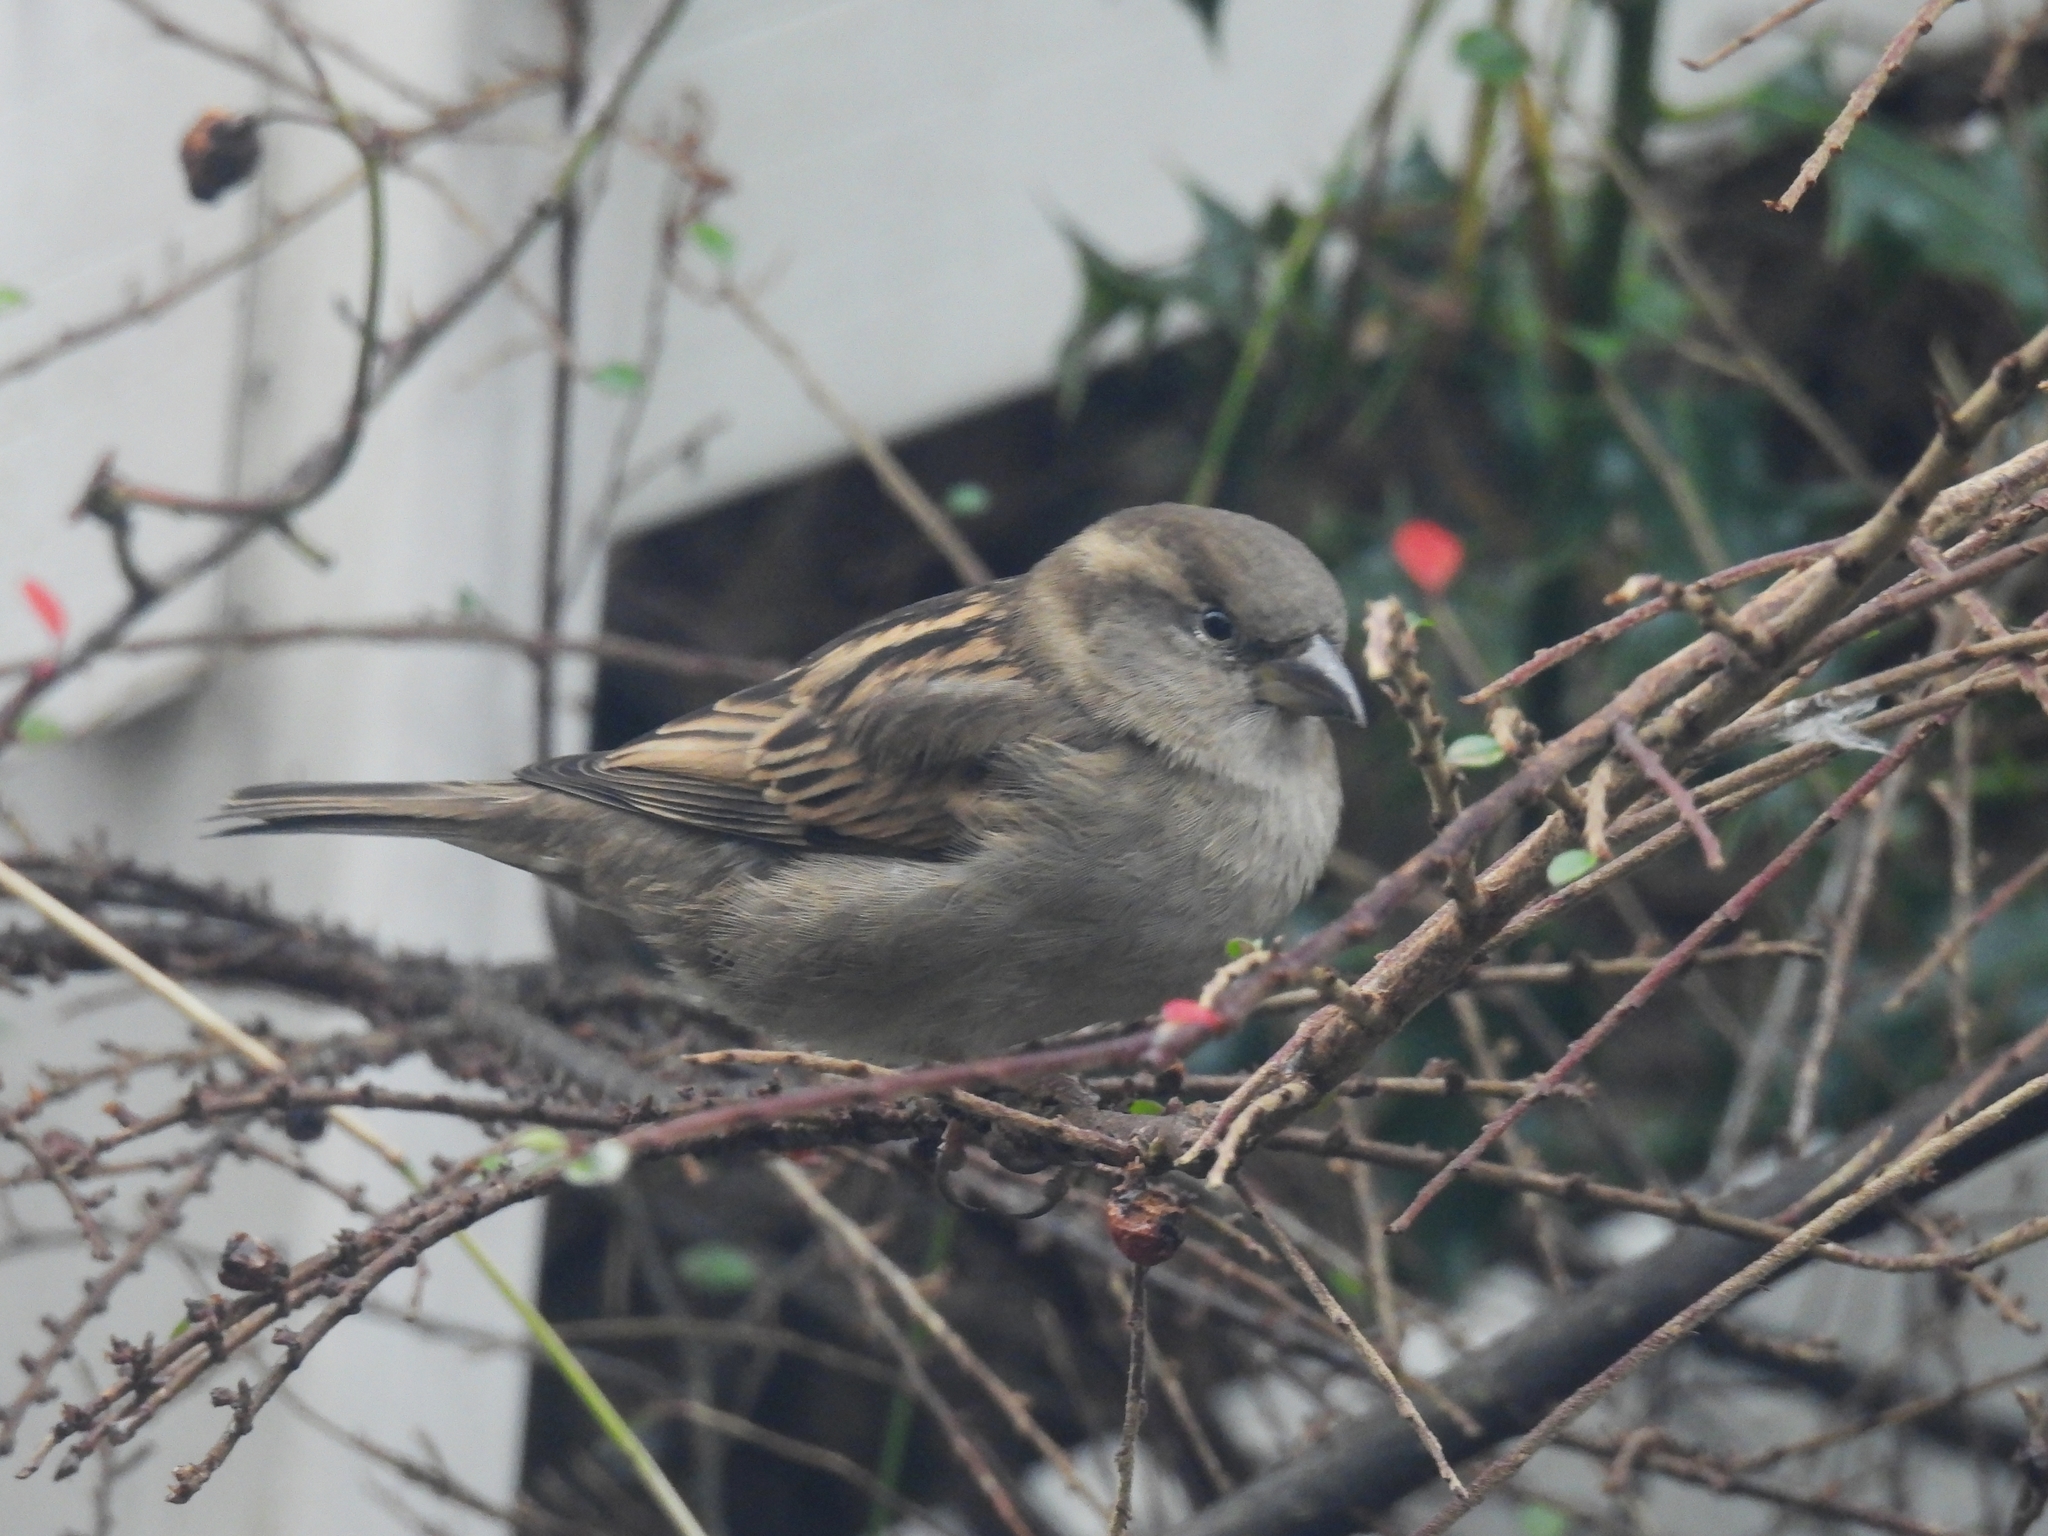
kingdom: Animalia
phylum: Chordata
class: Aves
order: Passeriformes
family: Passeridae
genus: Passer
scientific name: Passer domesticus
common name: House sparrow
